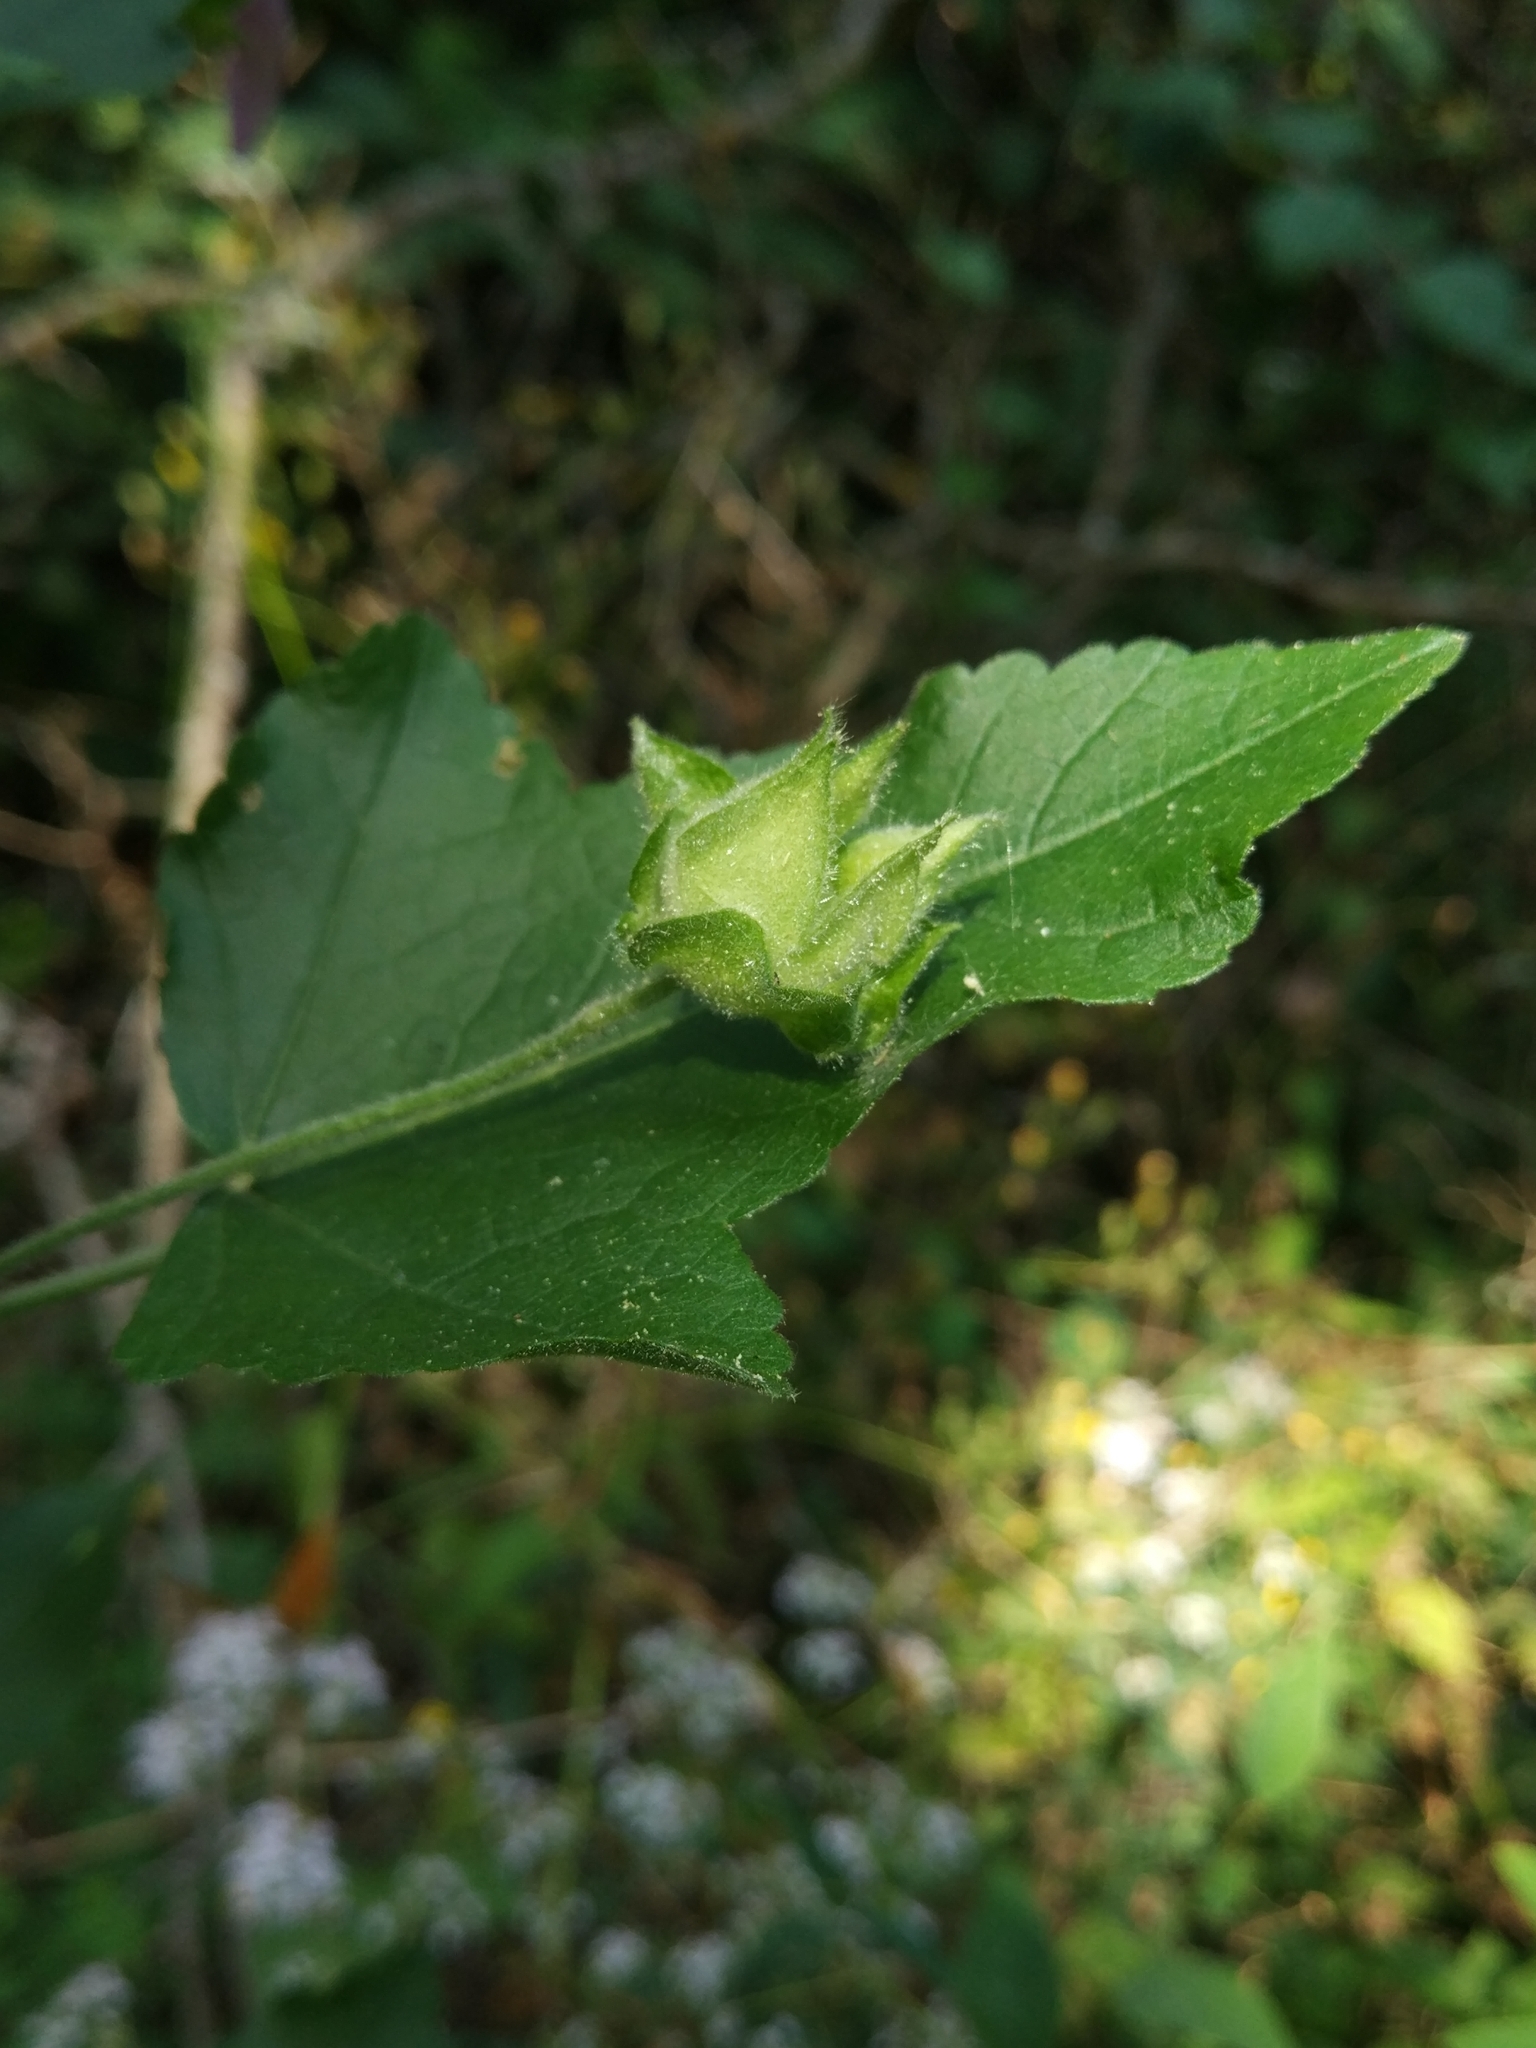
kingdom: Plantae
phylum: Tracheophyta
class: Magnoliopsida
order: Malvales
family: Malvaceae
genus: Malva
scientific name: Malva thuringiaca
